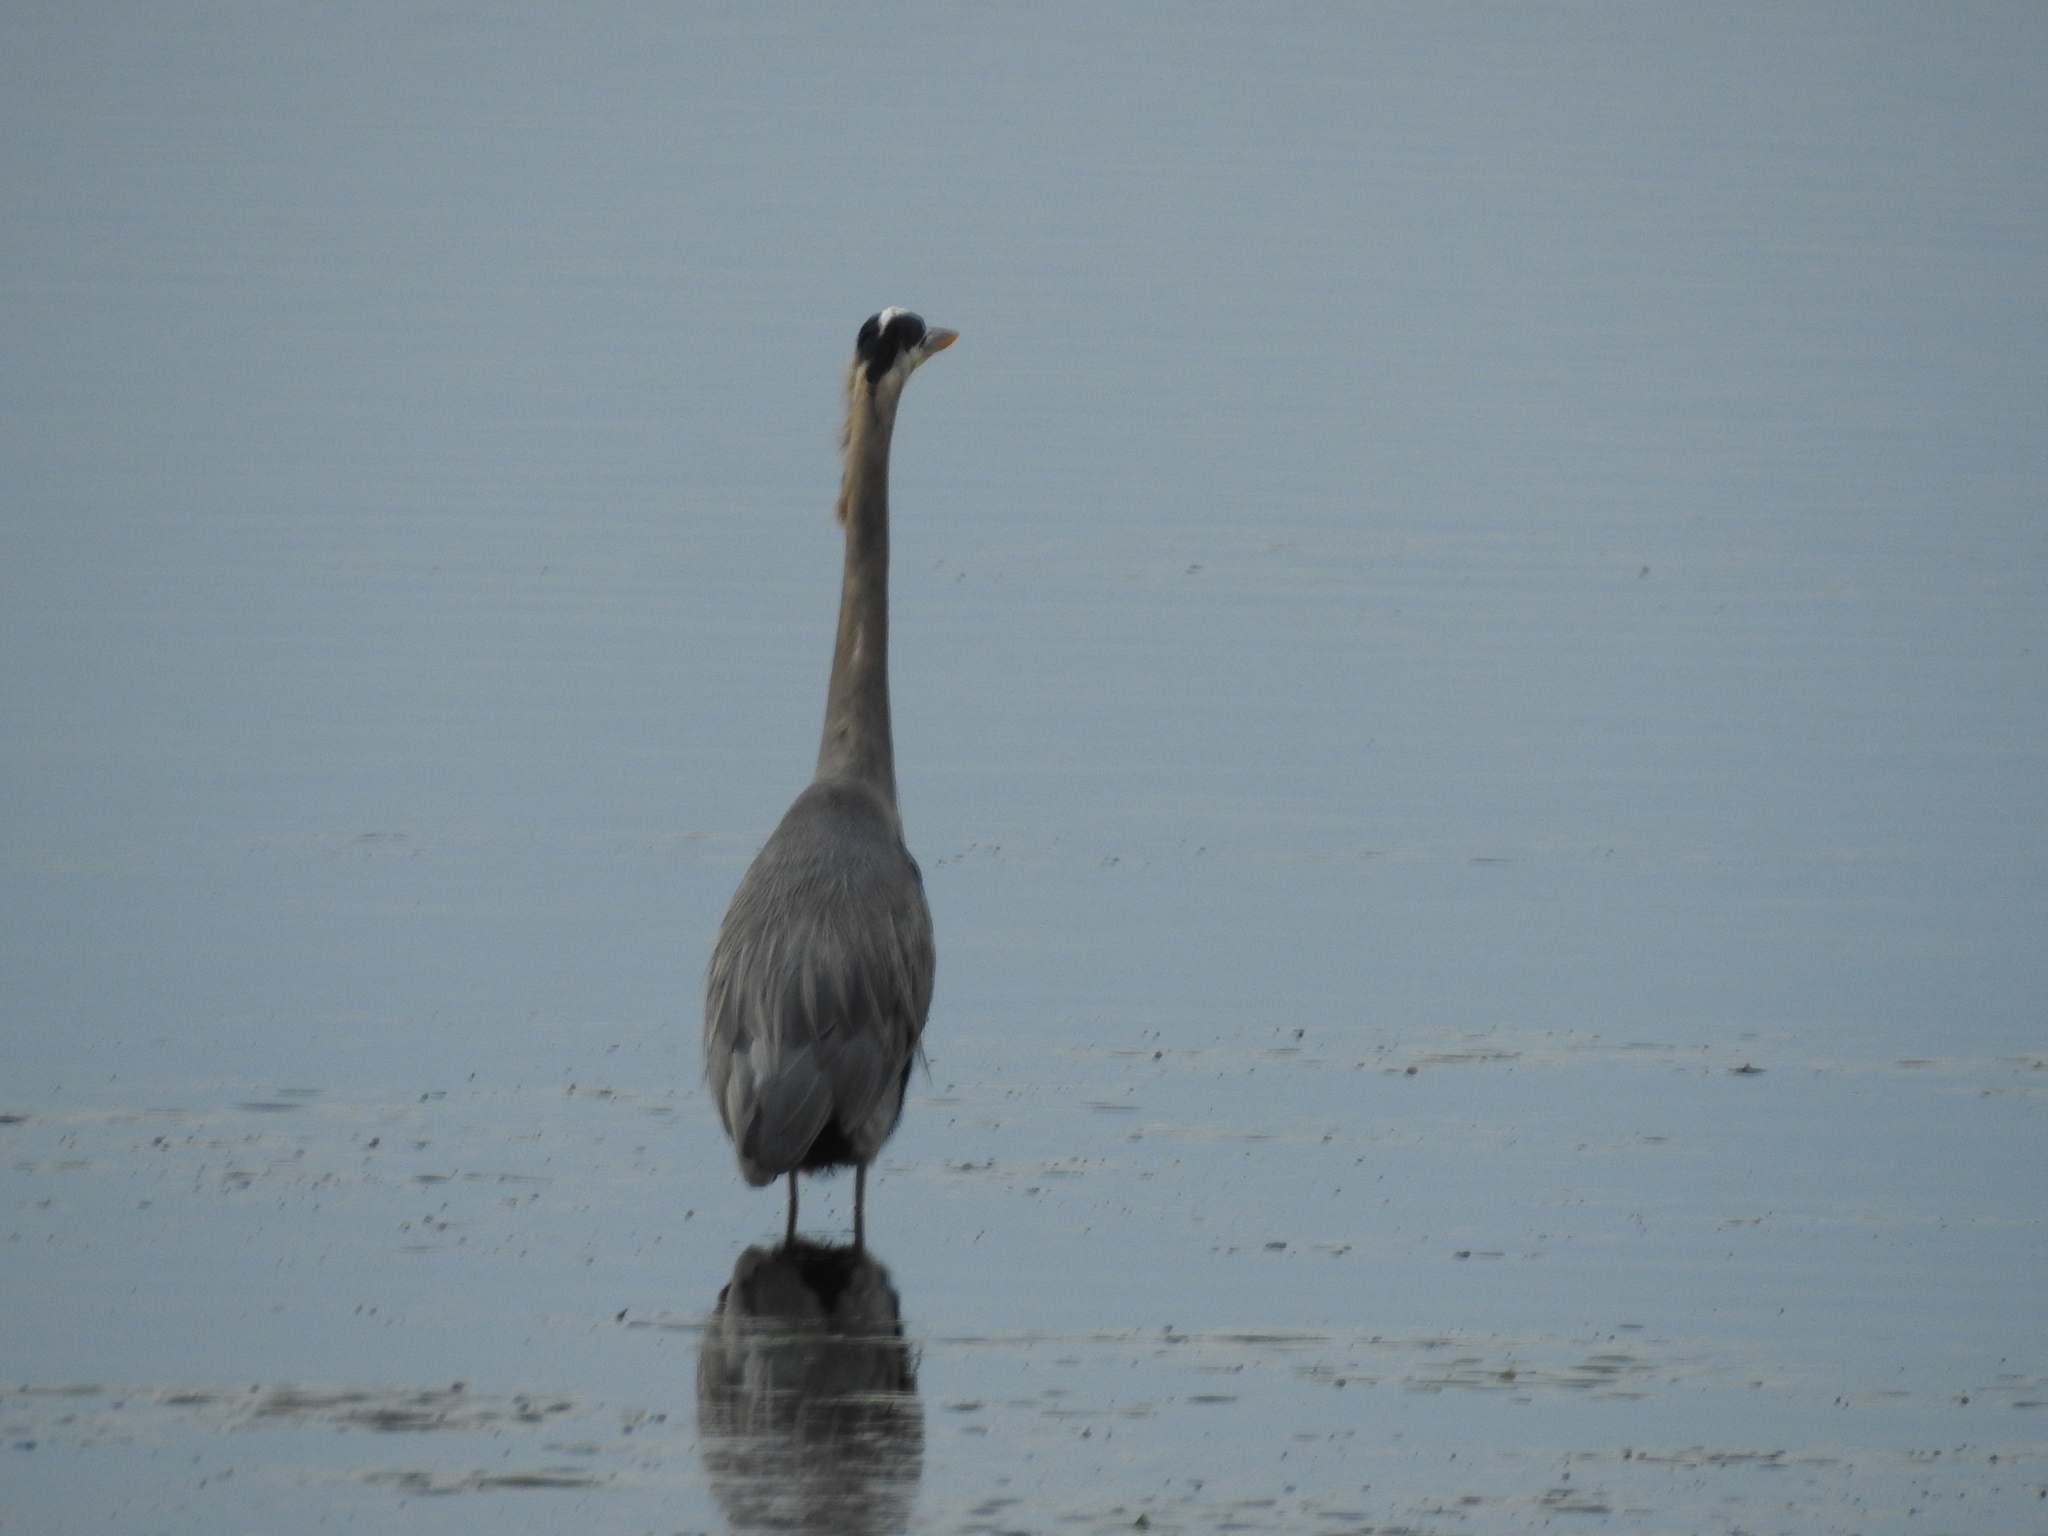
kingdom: Animalia
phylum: Chordata
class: Aves
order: Pelecaniformes
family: Ardeidae
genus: Ardea
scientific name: Ardea herodias
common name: Great blue heron
